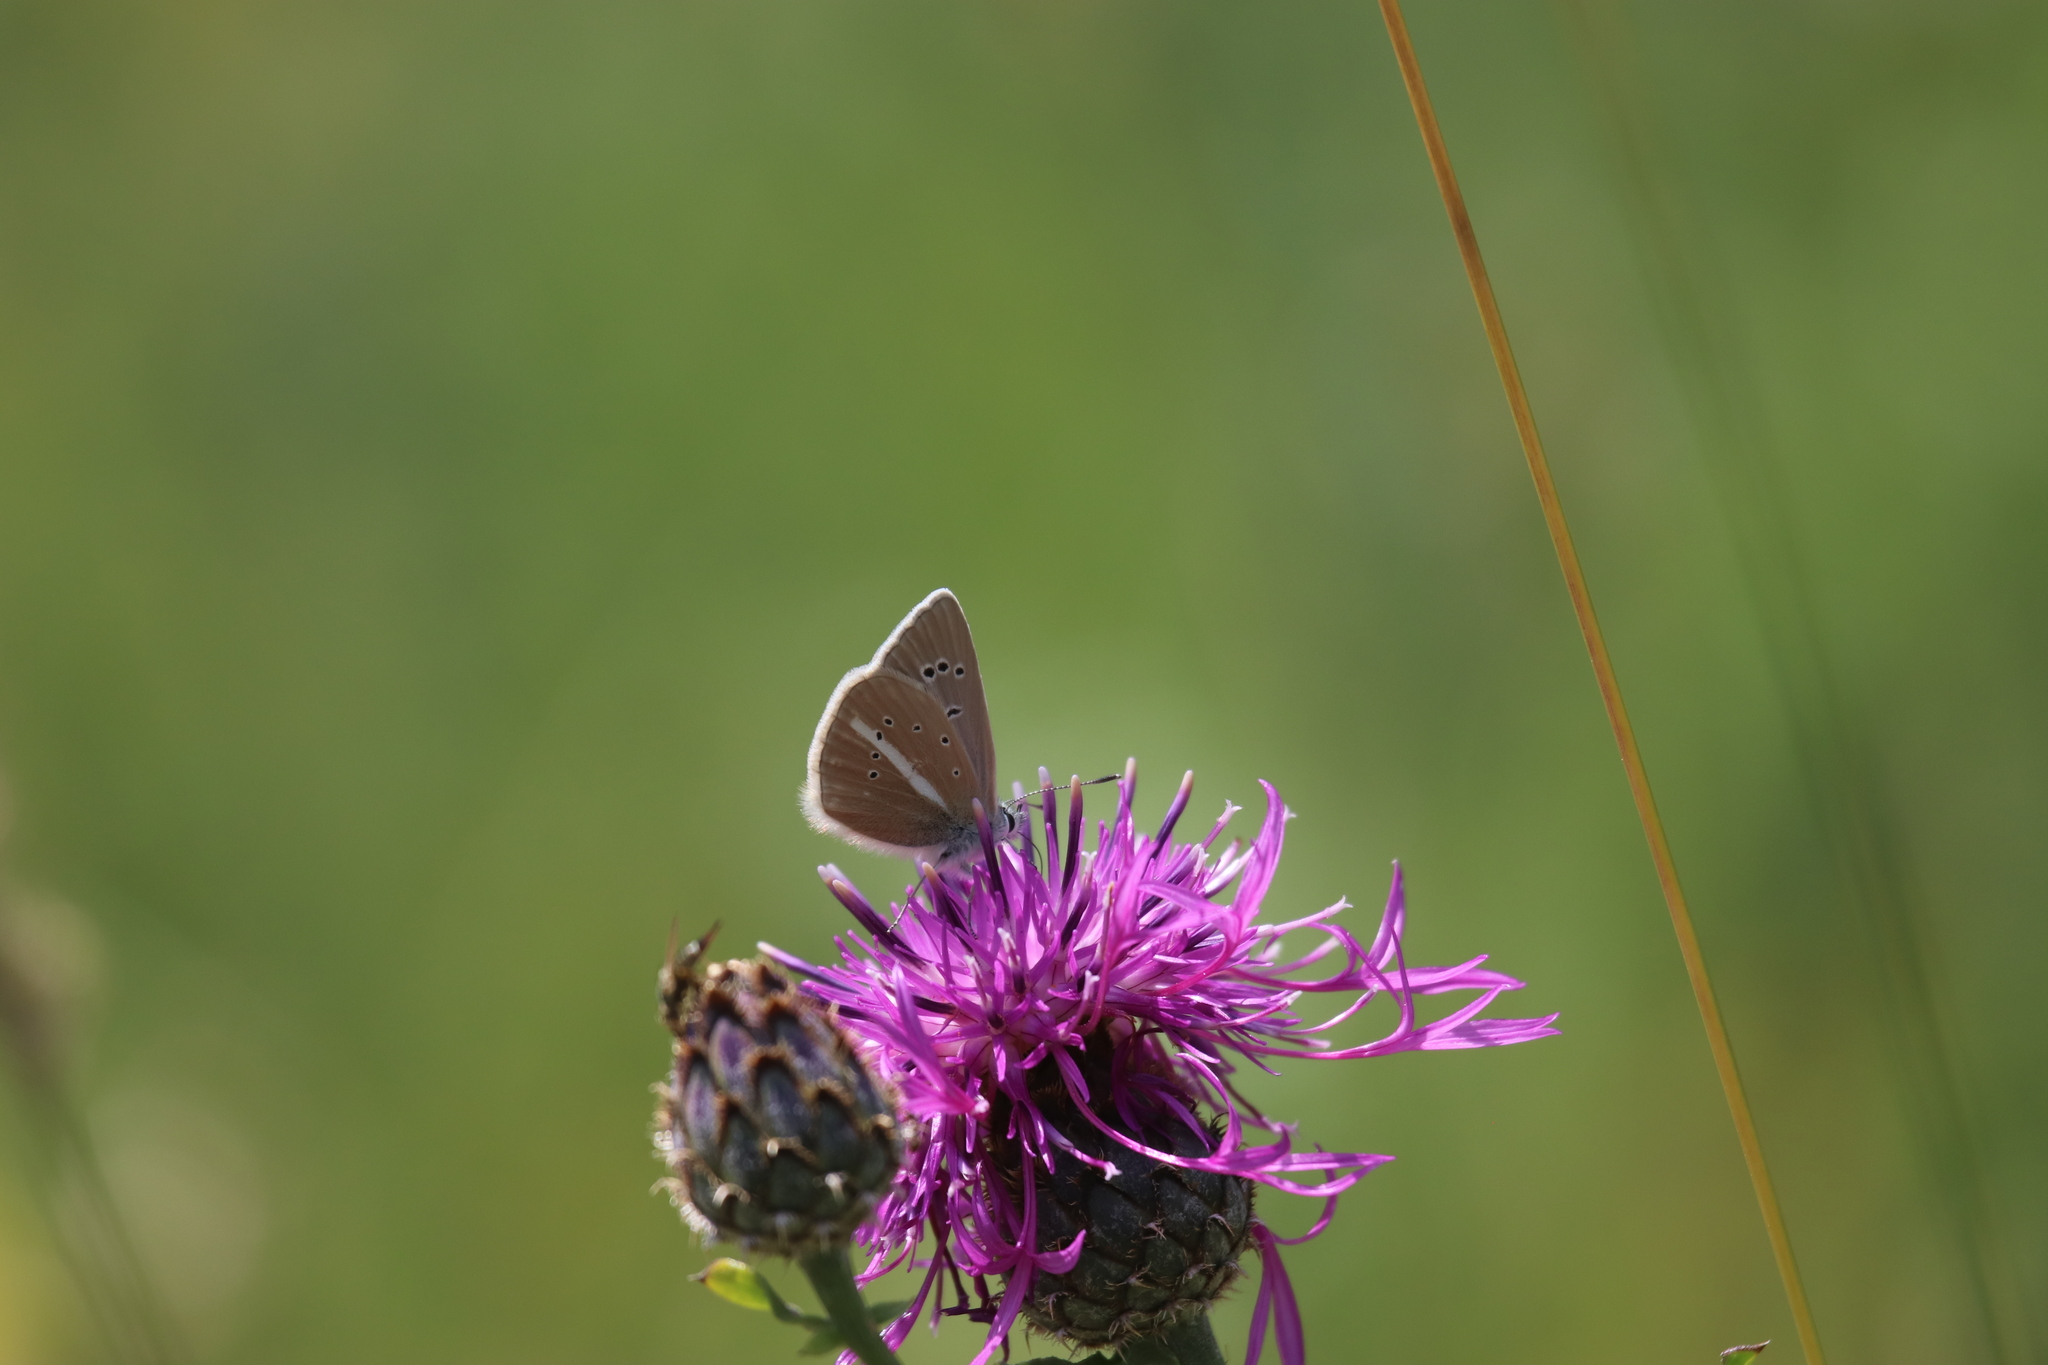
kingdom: Animalia
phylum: Arthropoda
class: Insecta
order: Lepidoptera
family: Lycaenidae
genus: Agrodiaetus
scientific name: Agrodiaetus damon
